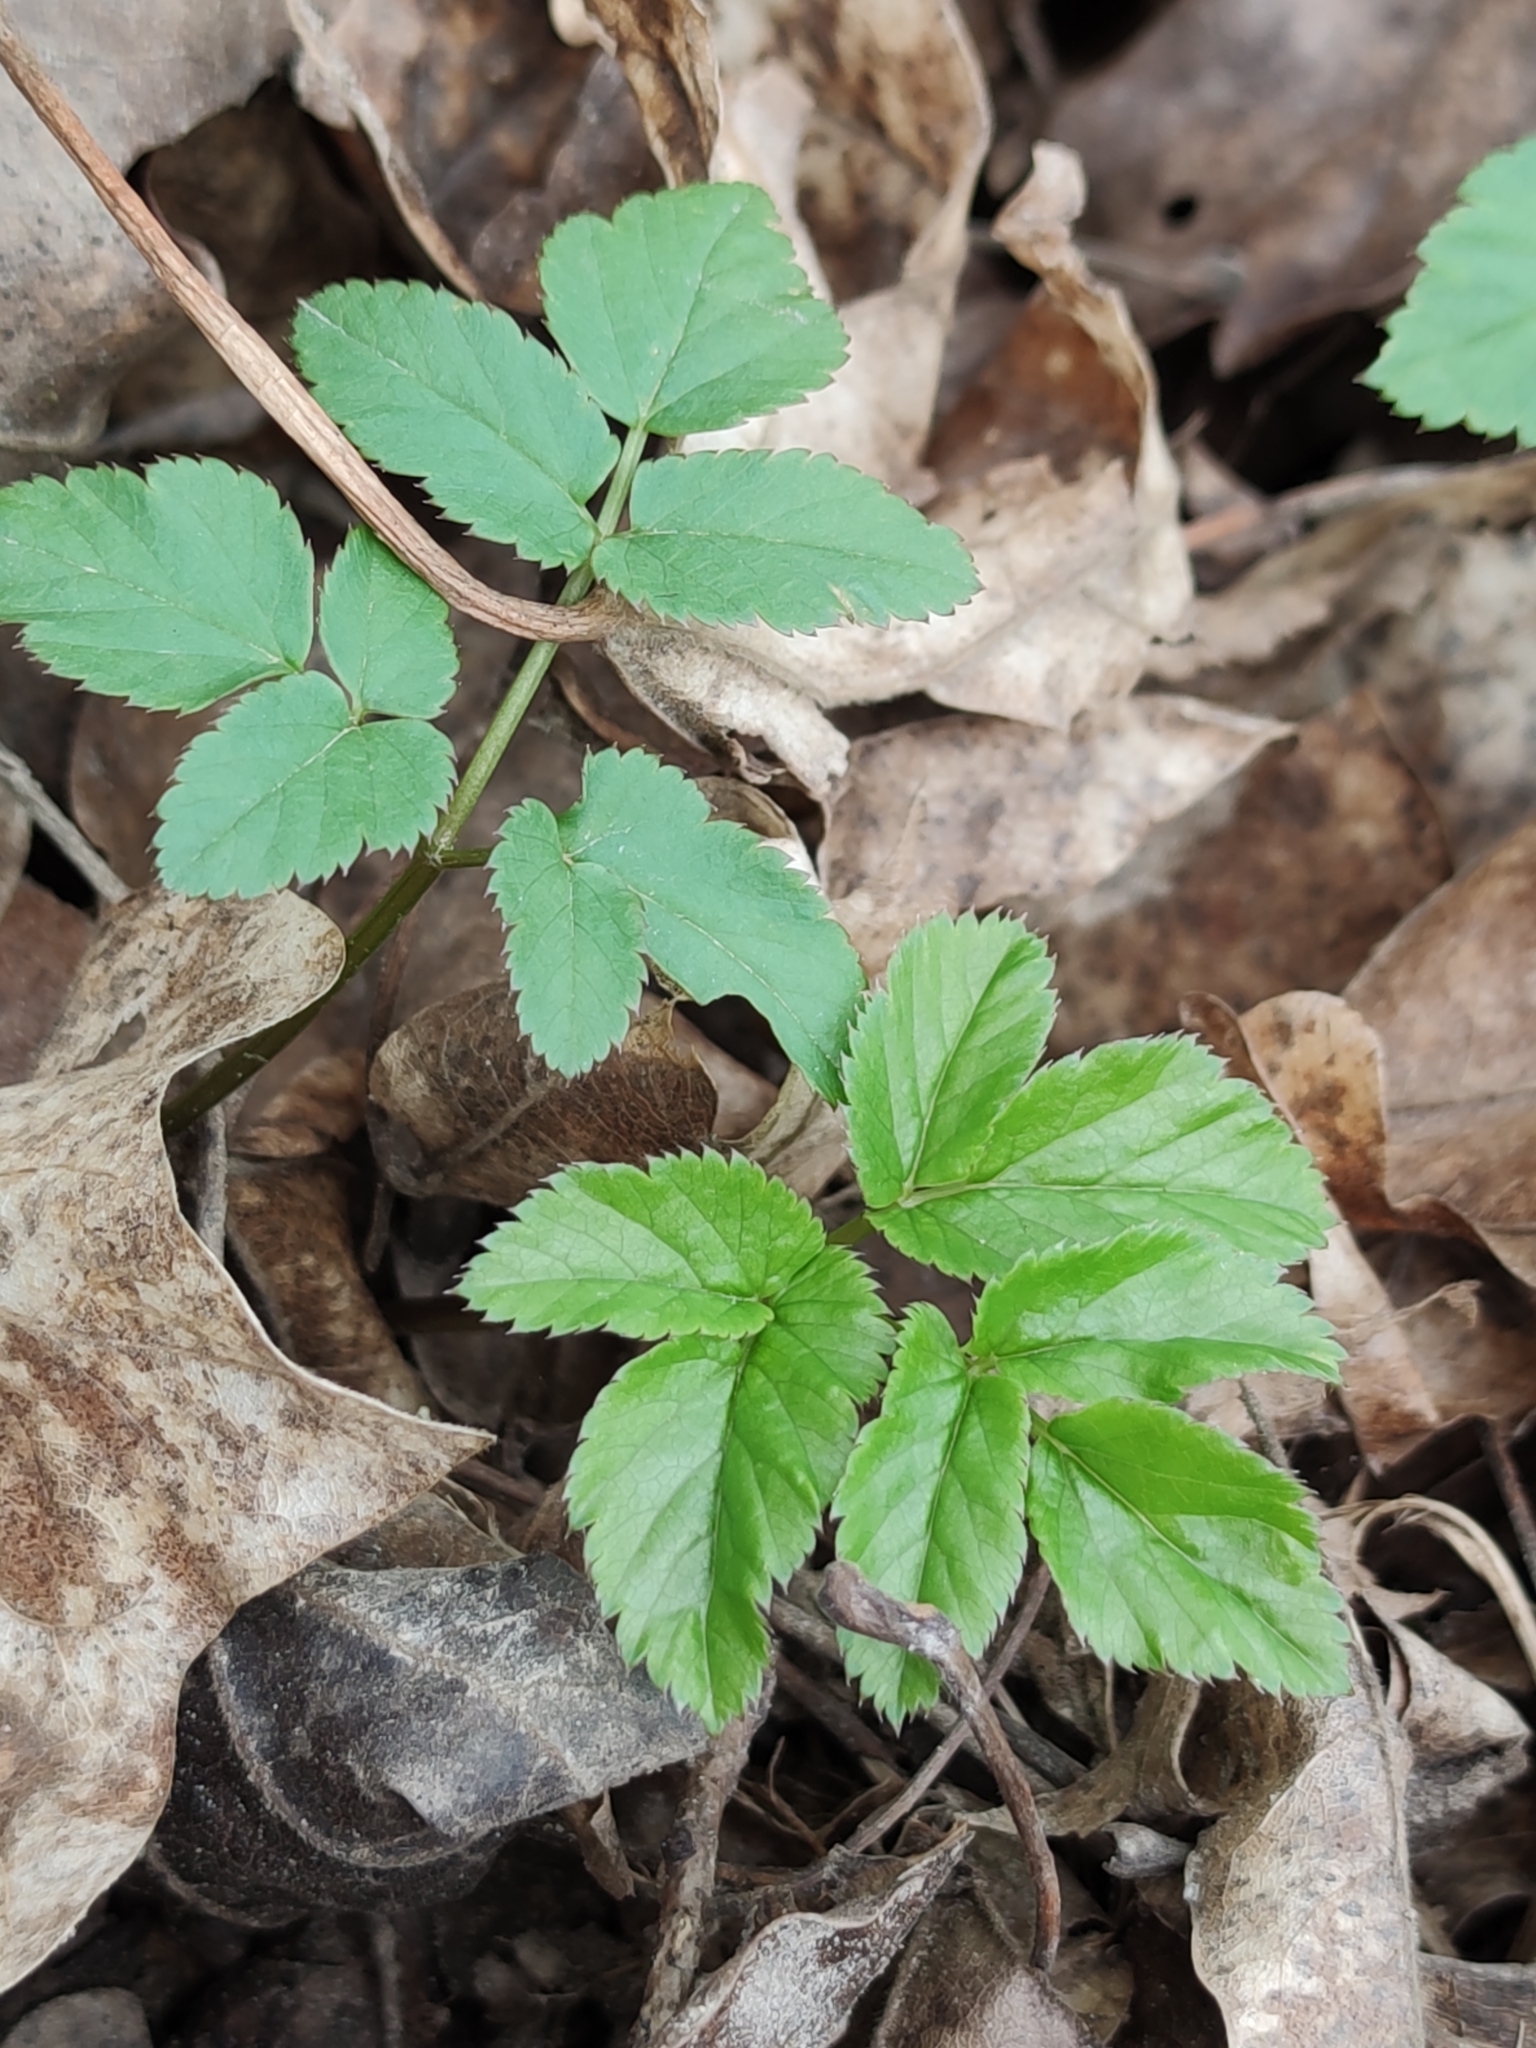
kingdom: Plantae
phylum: Tracheophyta
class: Magnoliopsida
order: Apiales
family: Apiaceae
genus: Aegopodium
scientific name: Aegopodium podagraria
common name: Ground-elder
